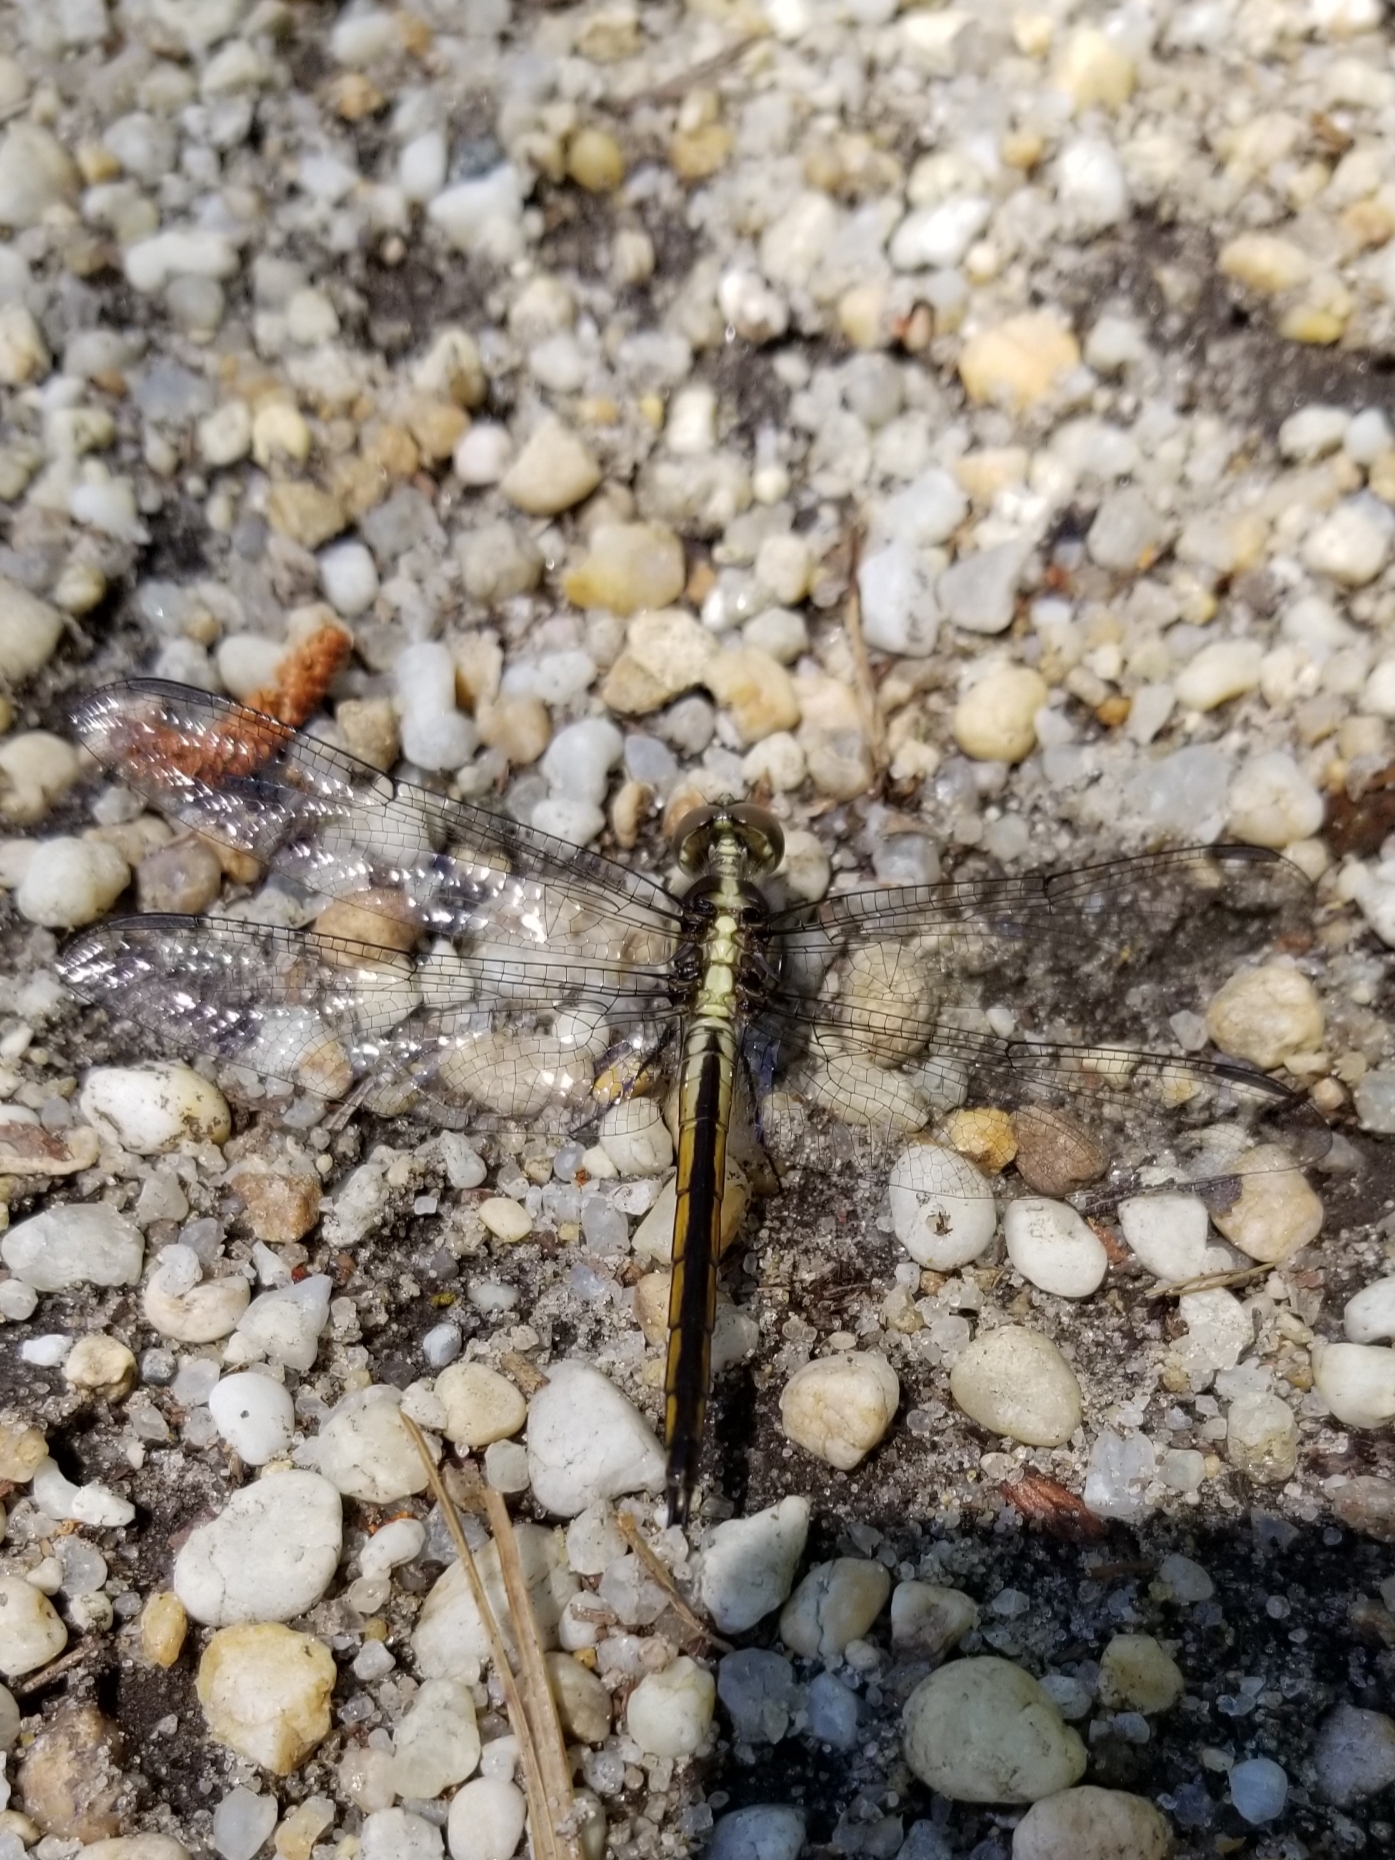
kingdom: Animalia
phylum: Arthropoda
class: Insecta
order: Odonata
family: Libellulidae
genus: Libellula
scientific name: Libellula incesta
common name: Slaty skimmer
